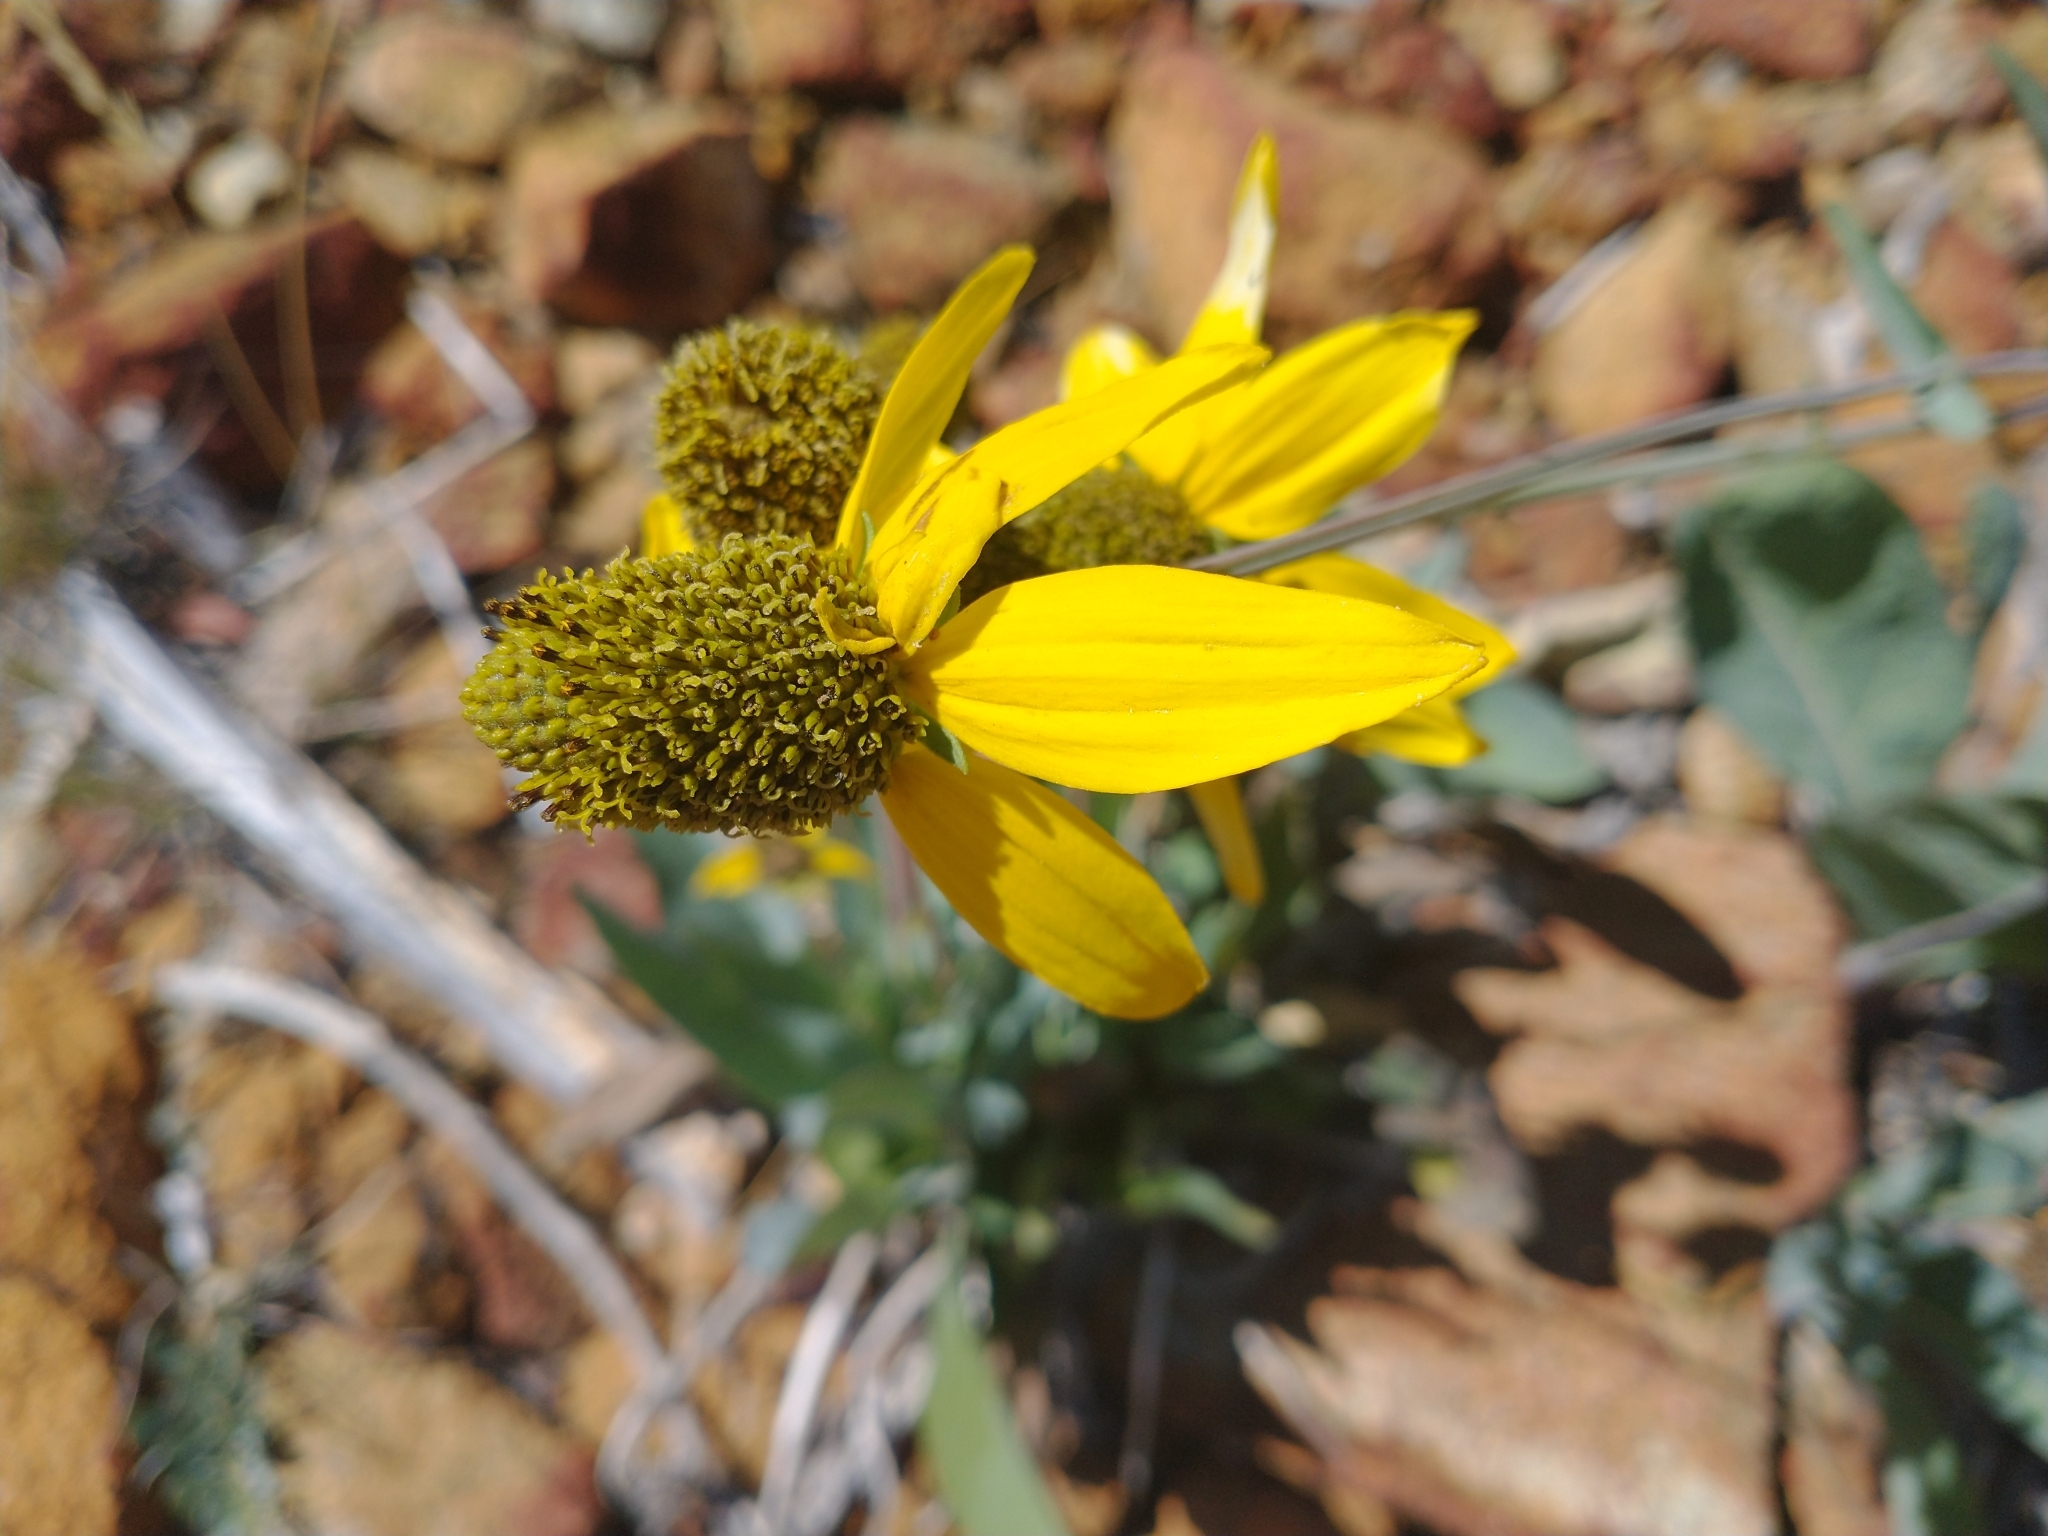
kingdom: Plantae
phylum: Tracheophyta
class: Magnoliopsida
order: Asterales
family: Asteraceae
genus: Rudbeckia
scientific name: Rudbeckia glaucescens
